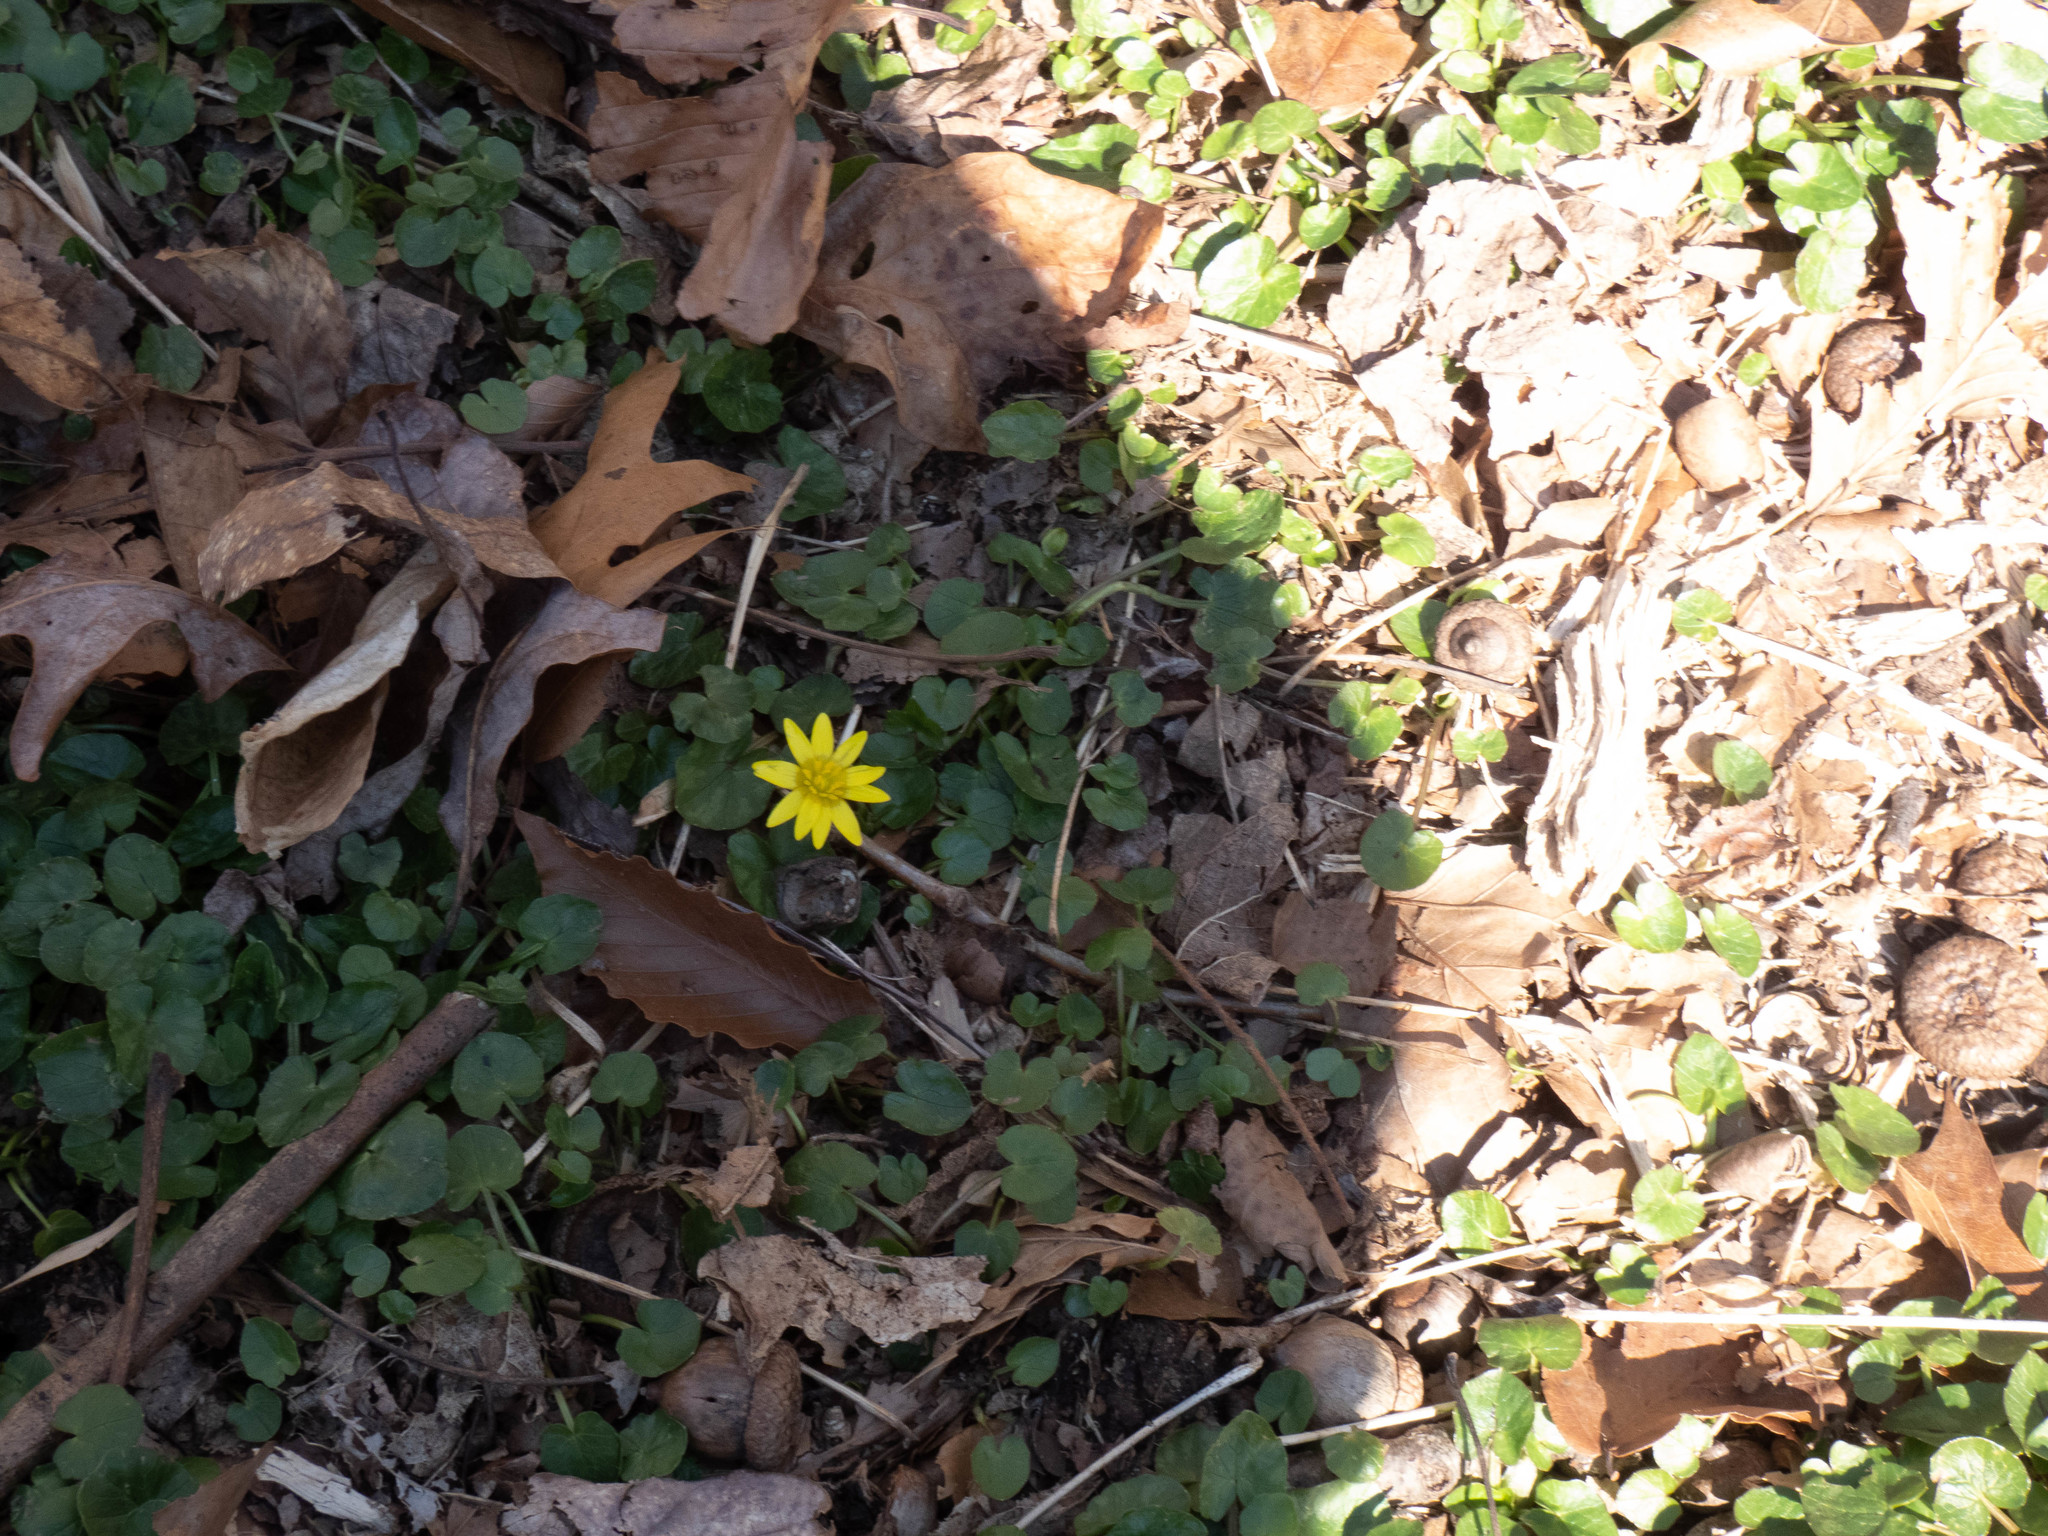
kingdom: Plantae
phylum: Tracheophyta
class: Magnoliopsida
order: Ranunculales
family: Ranunculaceae
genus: Ficaria
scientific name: Ficaria verna
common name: Lesser celandine
